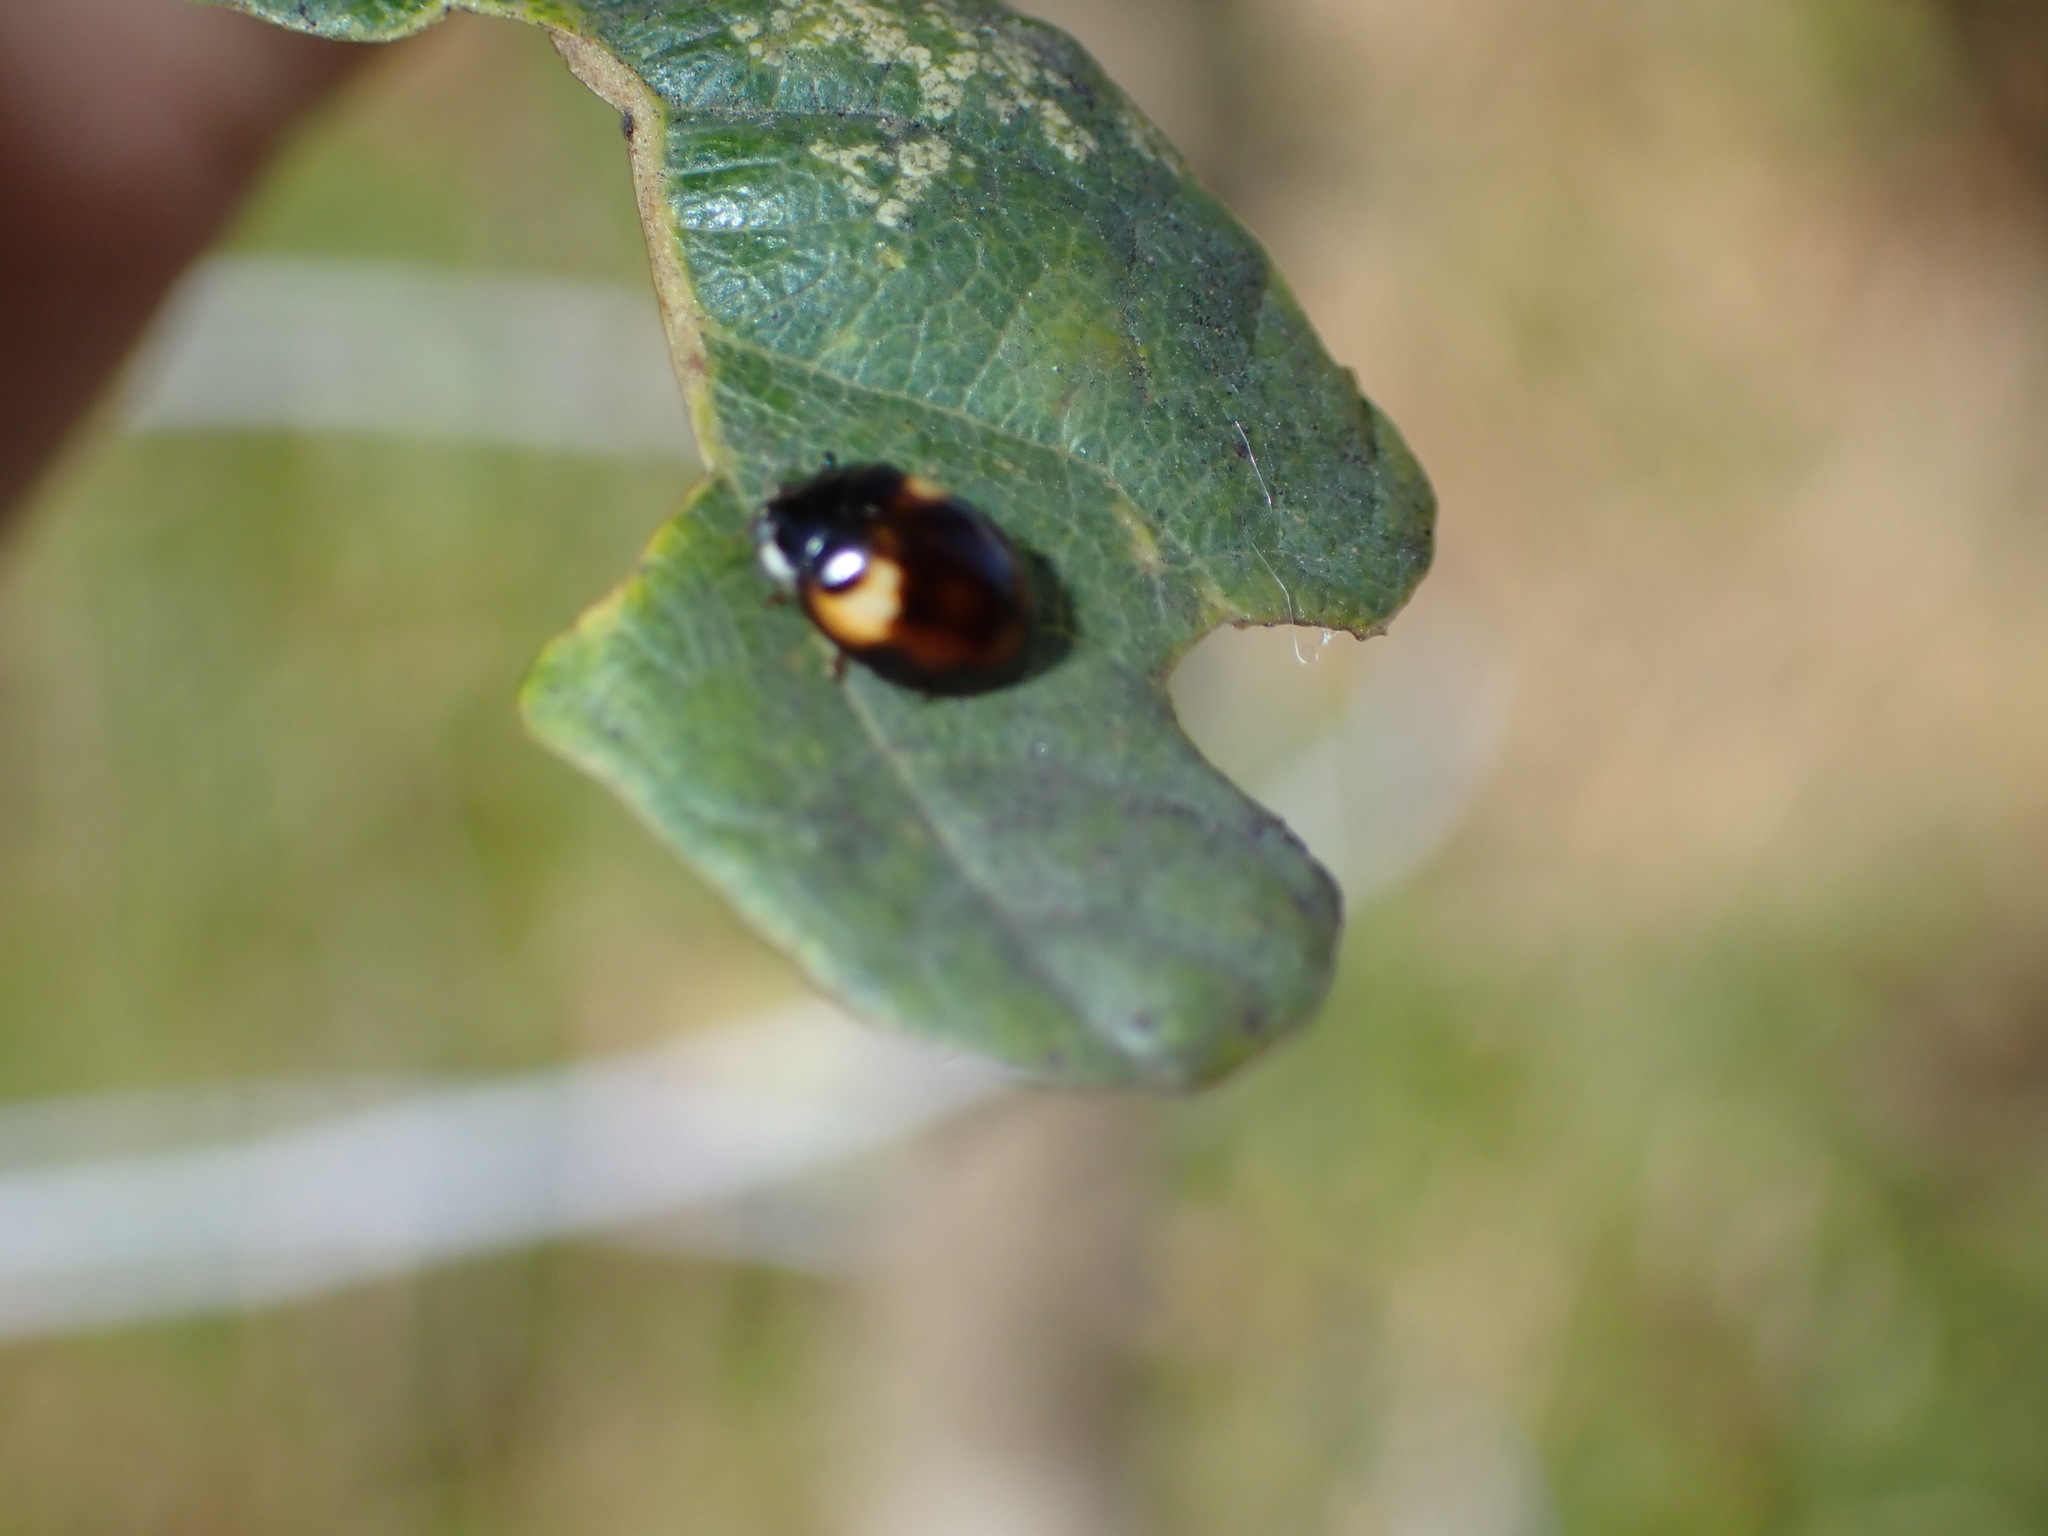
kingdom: Animalia
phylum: Arthropoda
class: Insecta
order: Coleoptera
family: Coccinellidae
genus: Adalia
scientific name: Adalia decempunctata
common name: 10-spot ladybird
